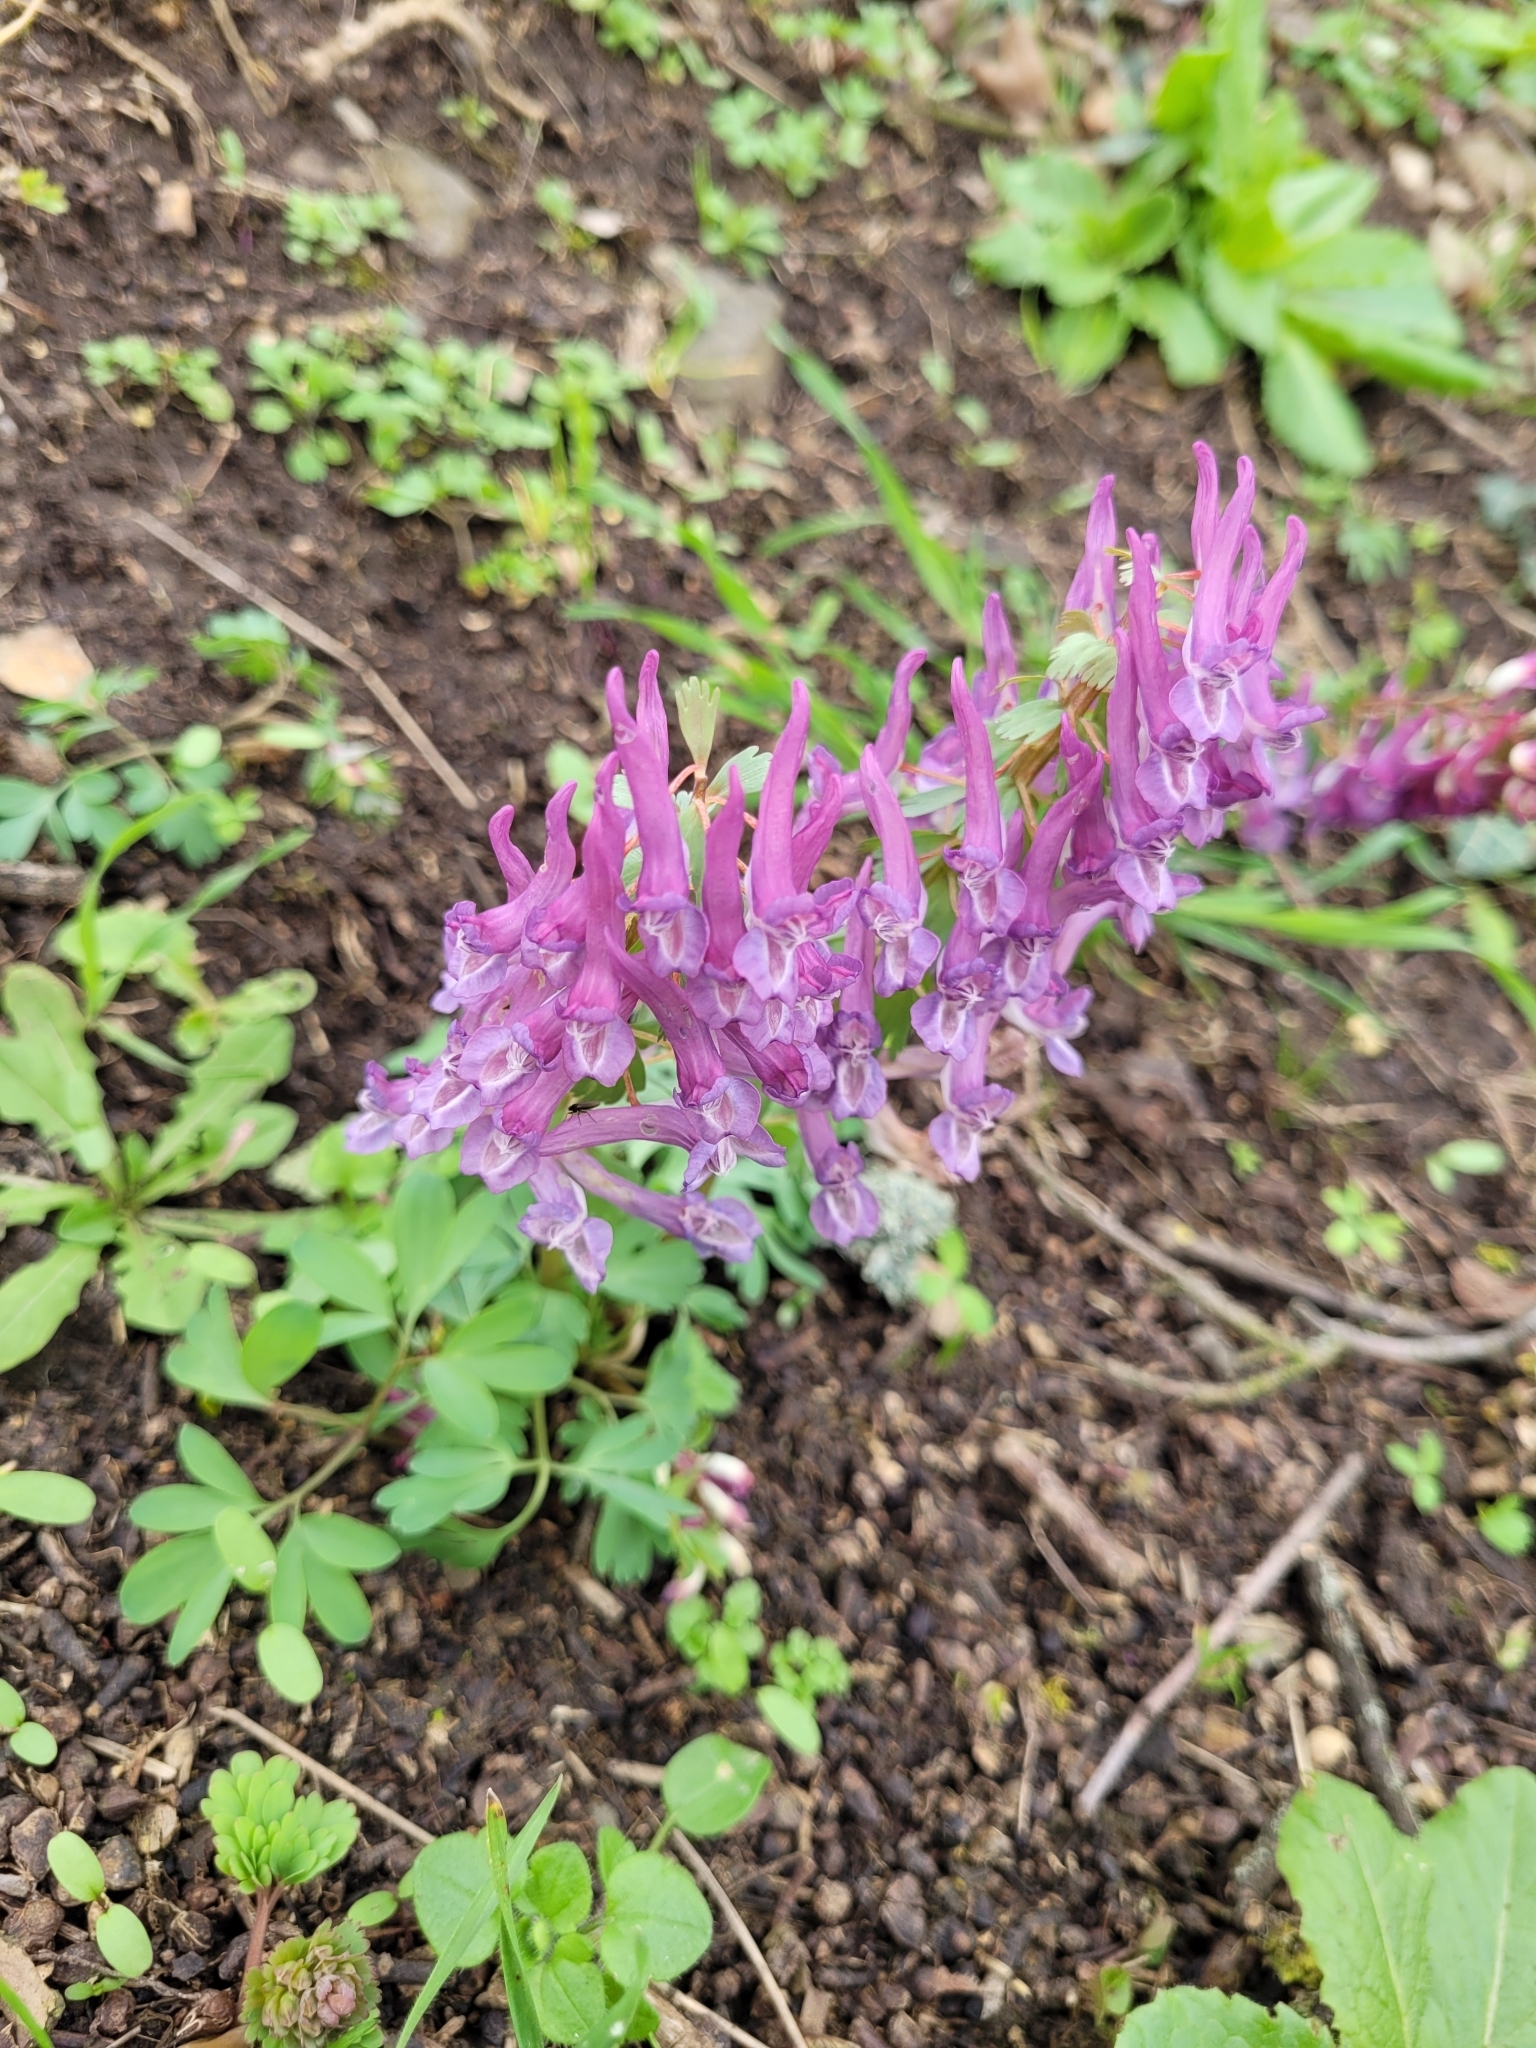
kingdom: Plantae
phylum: Tracheophyta
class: Magnoliopsida
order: Ranunculales
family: Papaveraceae
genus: Corydalis
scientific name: Corydalis solida
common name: Bird-in-a-bush
